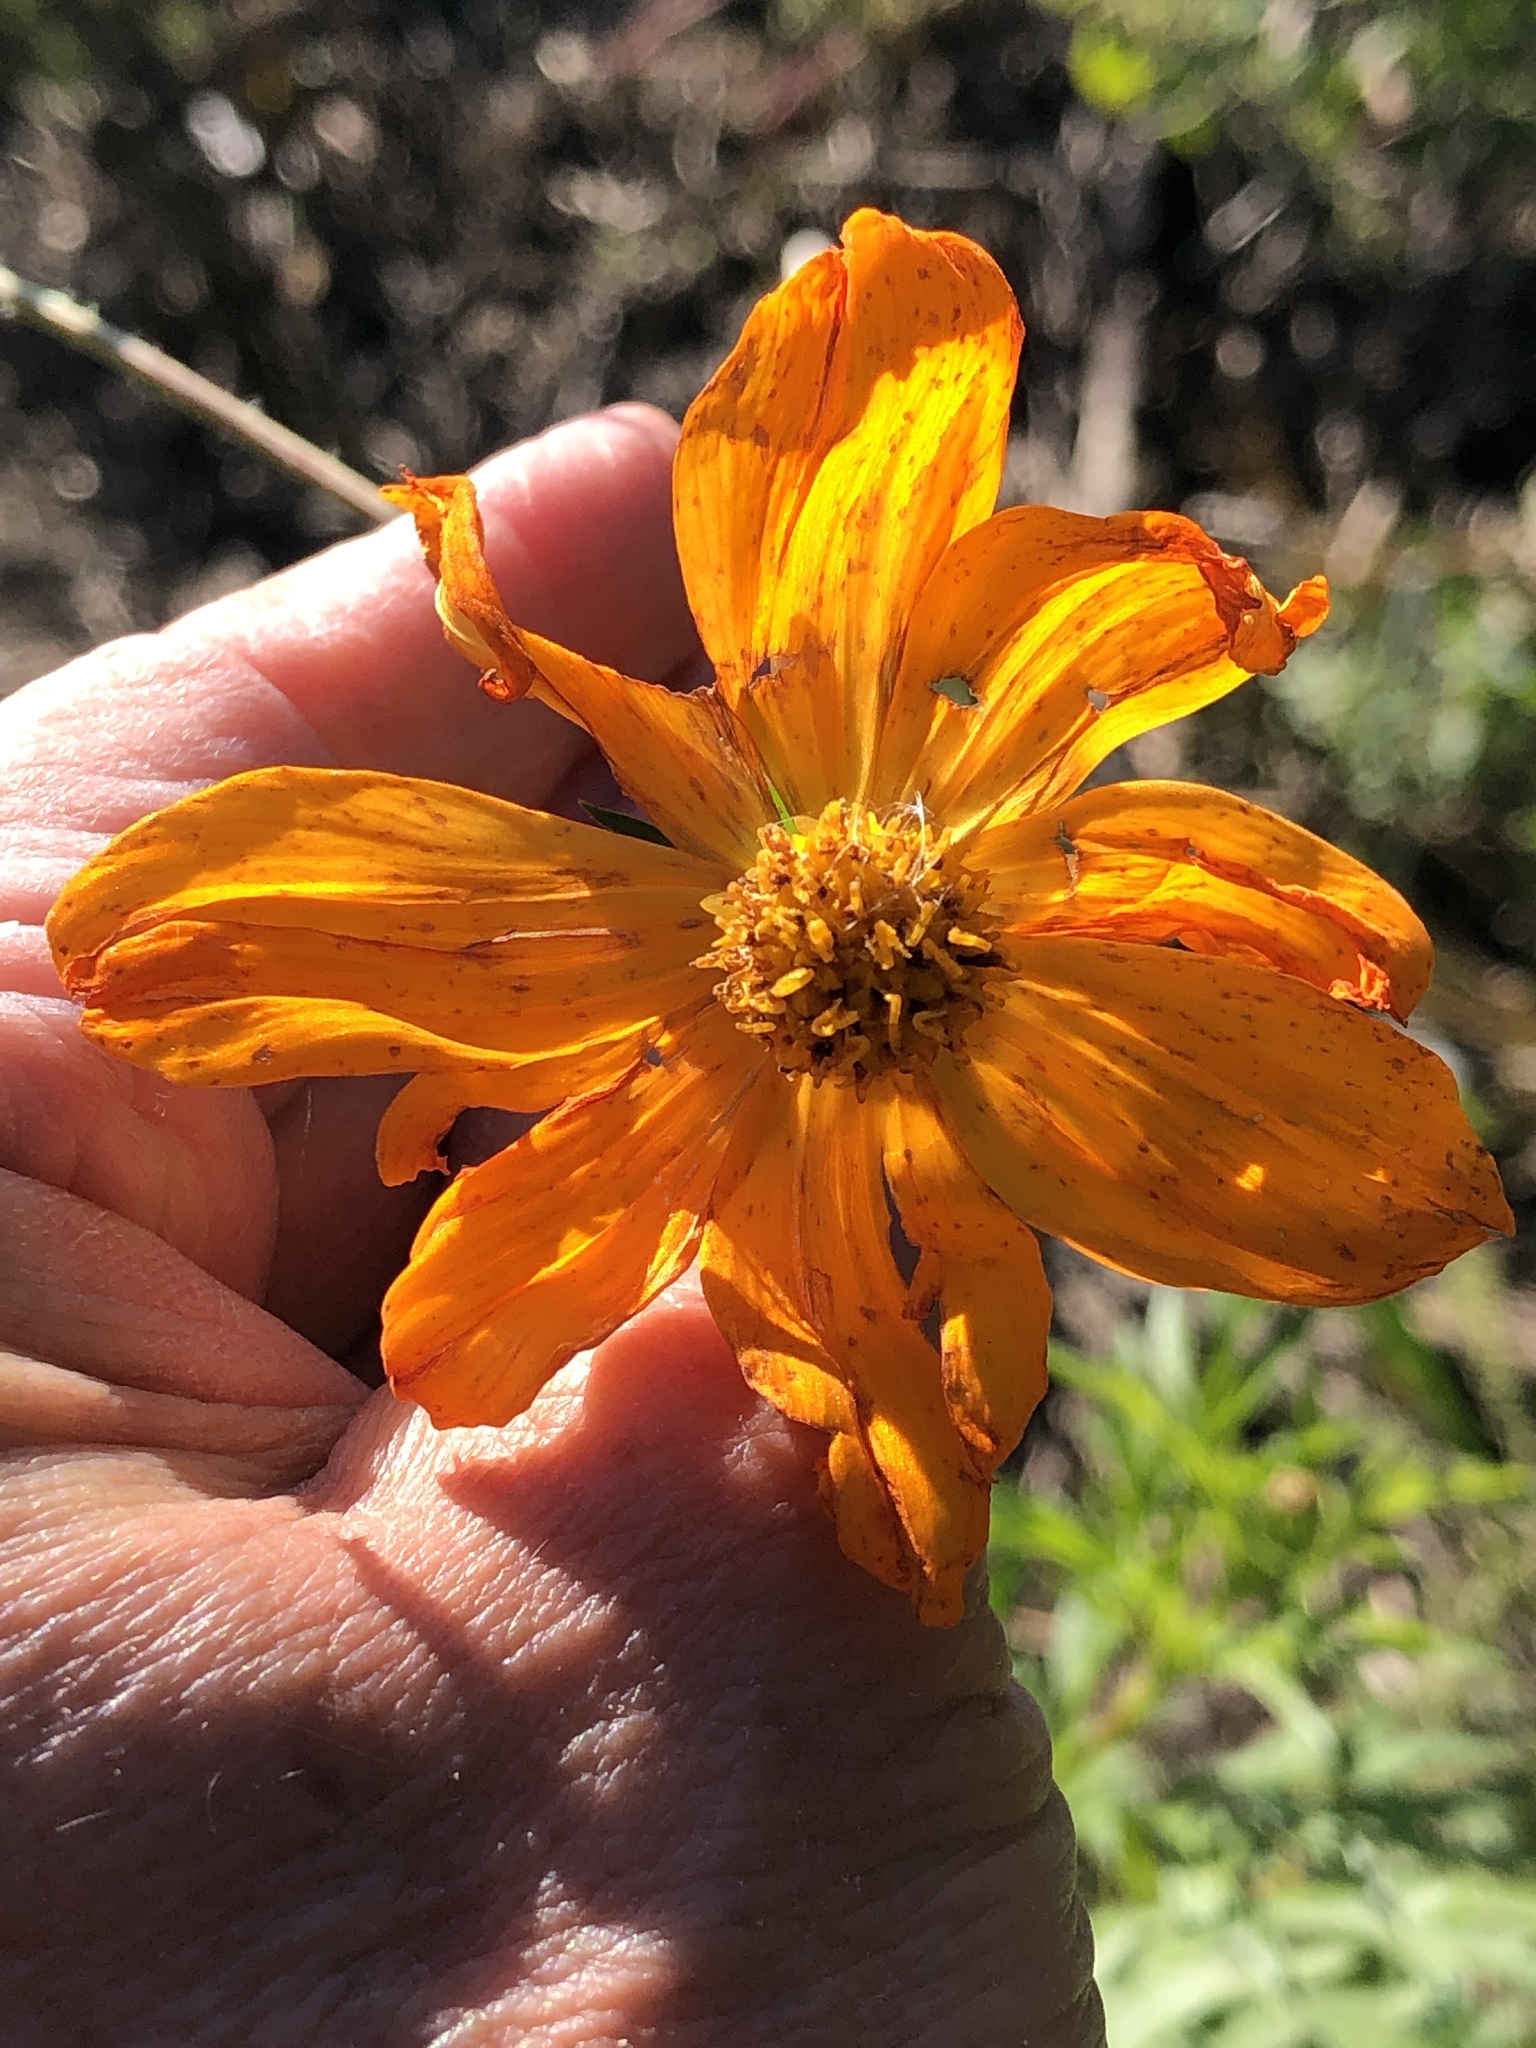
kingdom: Plantae
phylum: Tracheophyta
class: Magnoliopsida
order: Asterales
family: Asteraceae
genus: Cosmos
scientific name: Cosmos sulphureus
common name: Sulphur cosmos
